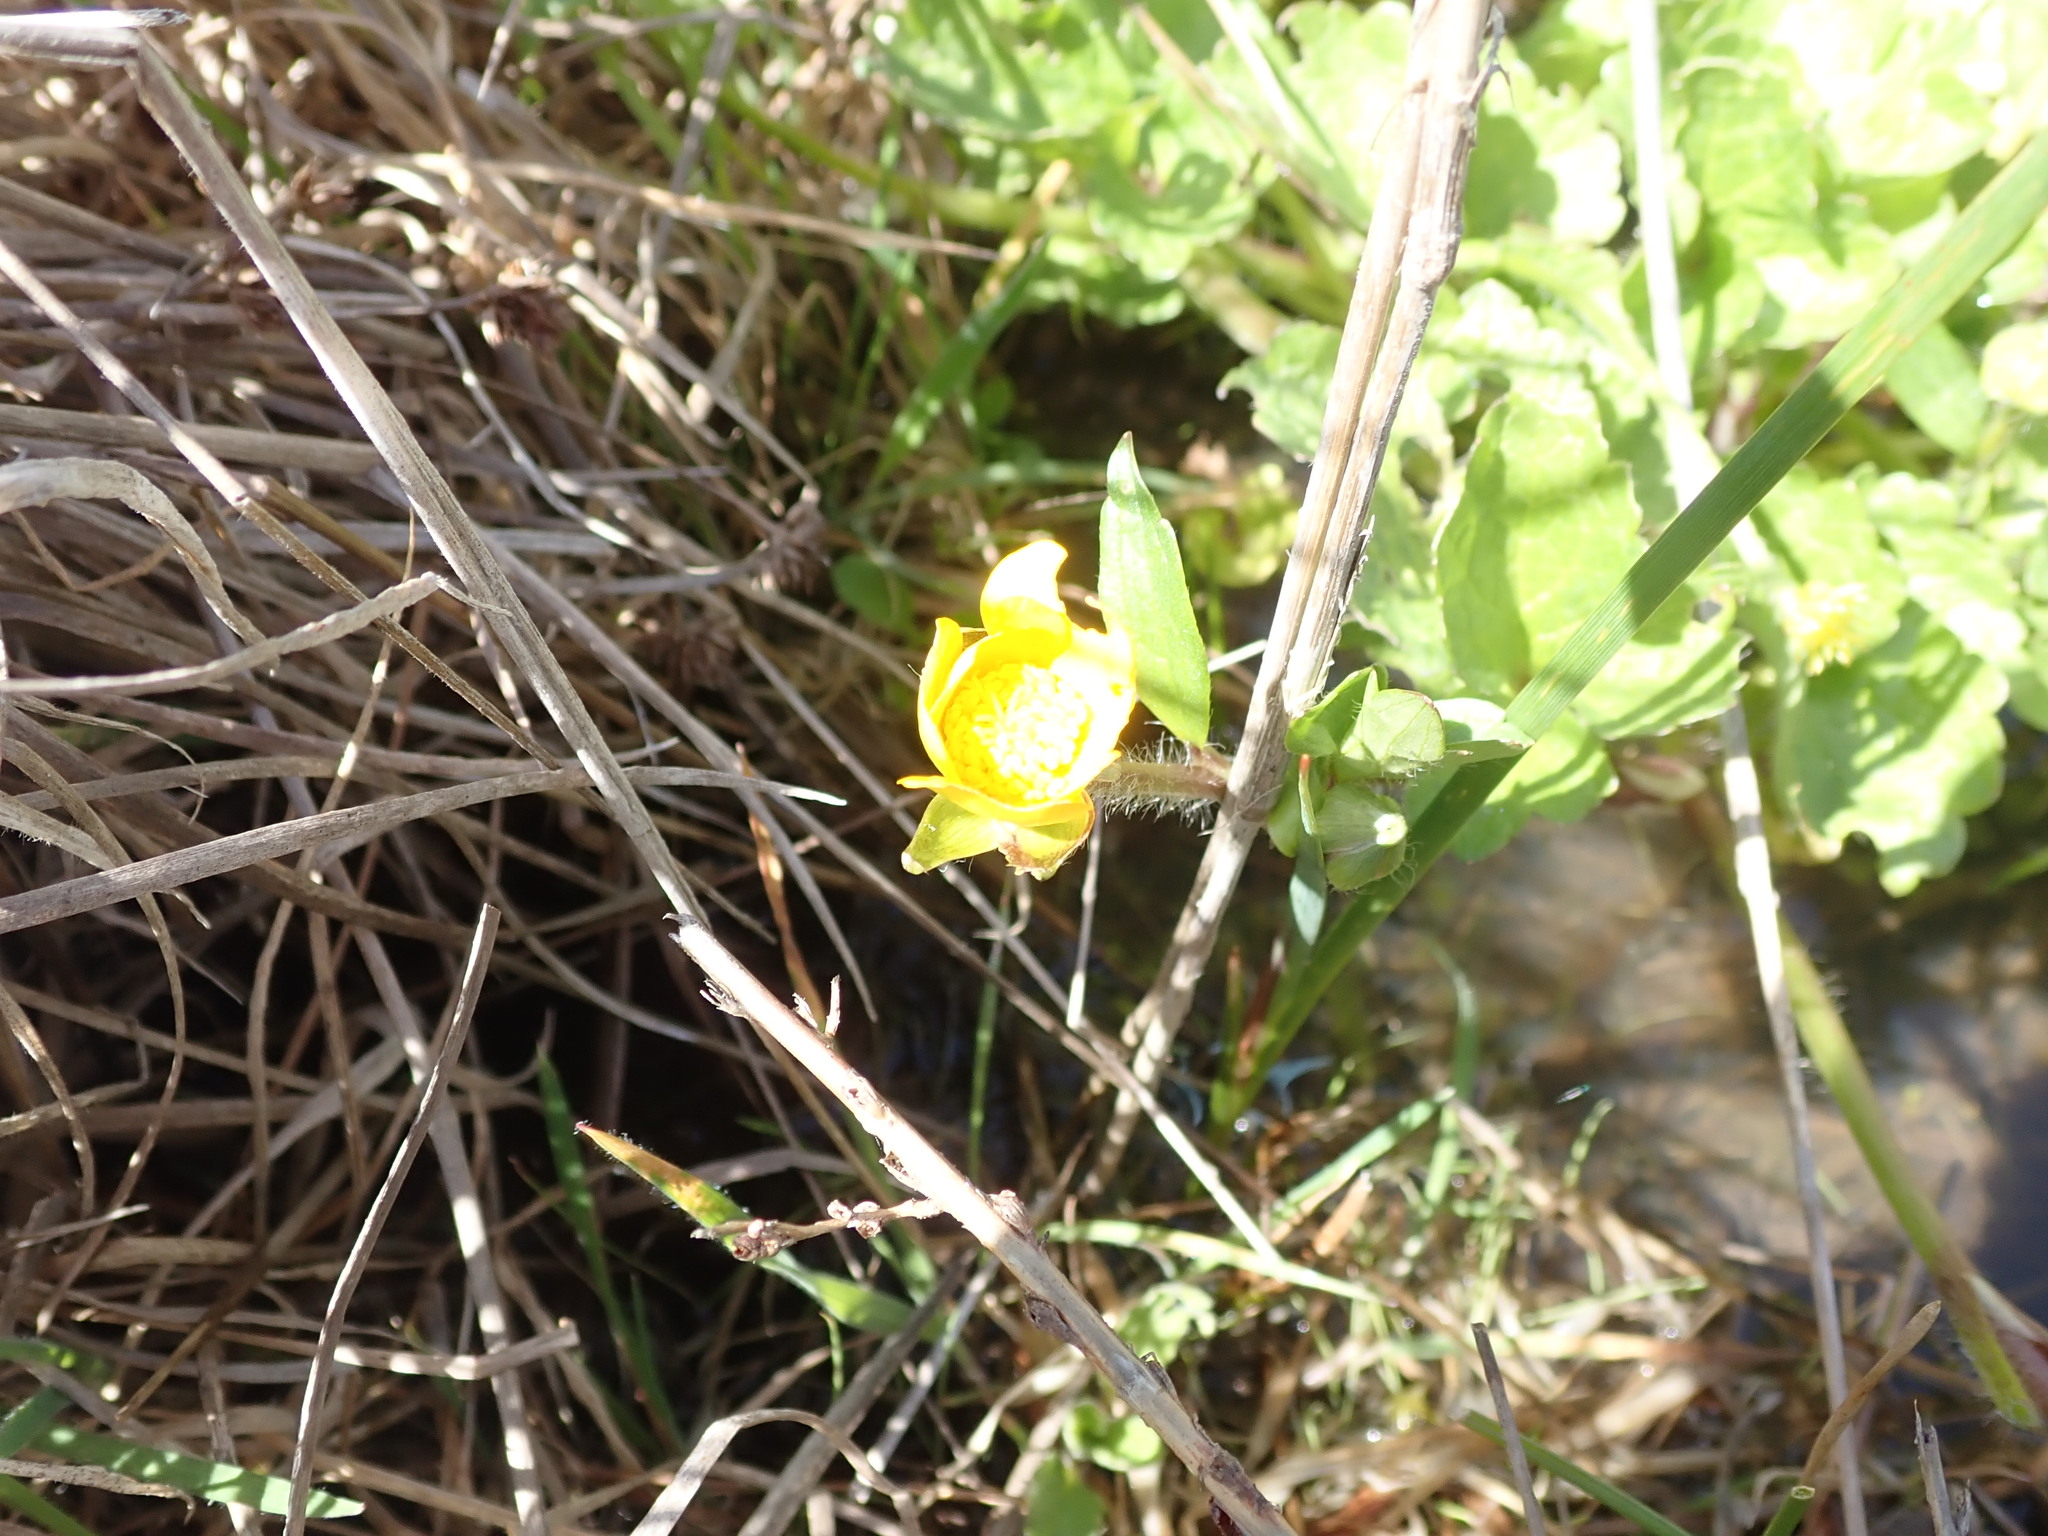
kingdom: Plantae
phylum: Tracheophyta
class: Magnoliopsida
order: Ranunculales
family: Ranunculaceae
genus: Ranunculus
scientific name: Ranunculus orthorhynchus
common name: Straight-beak buttercup
